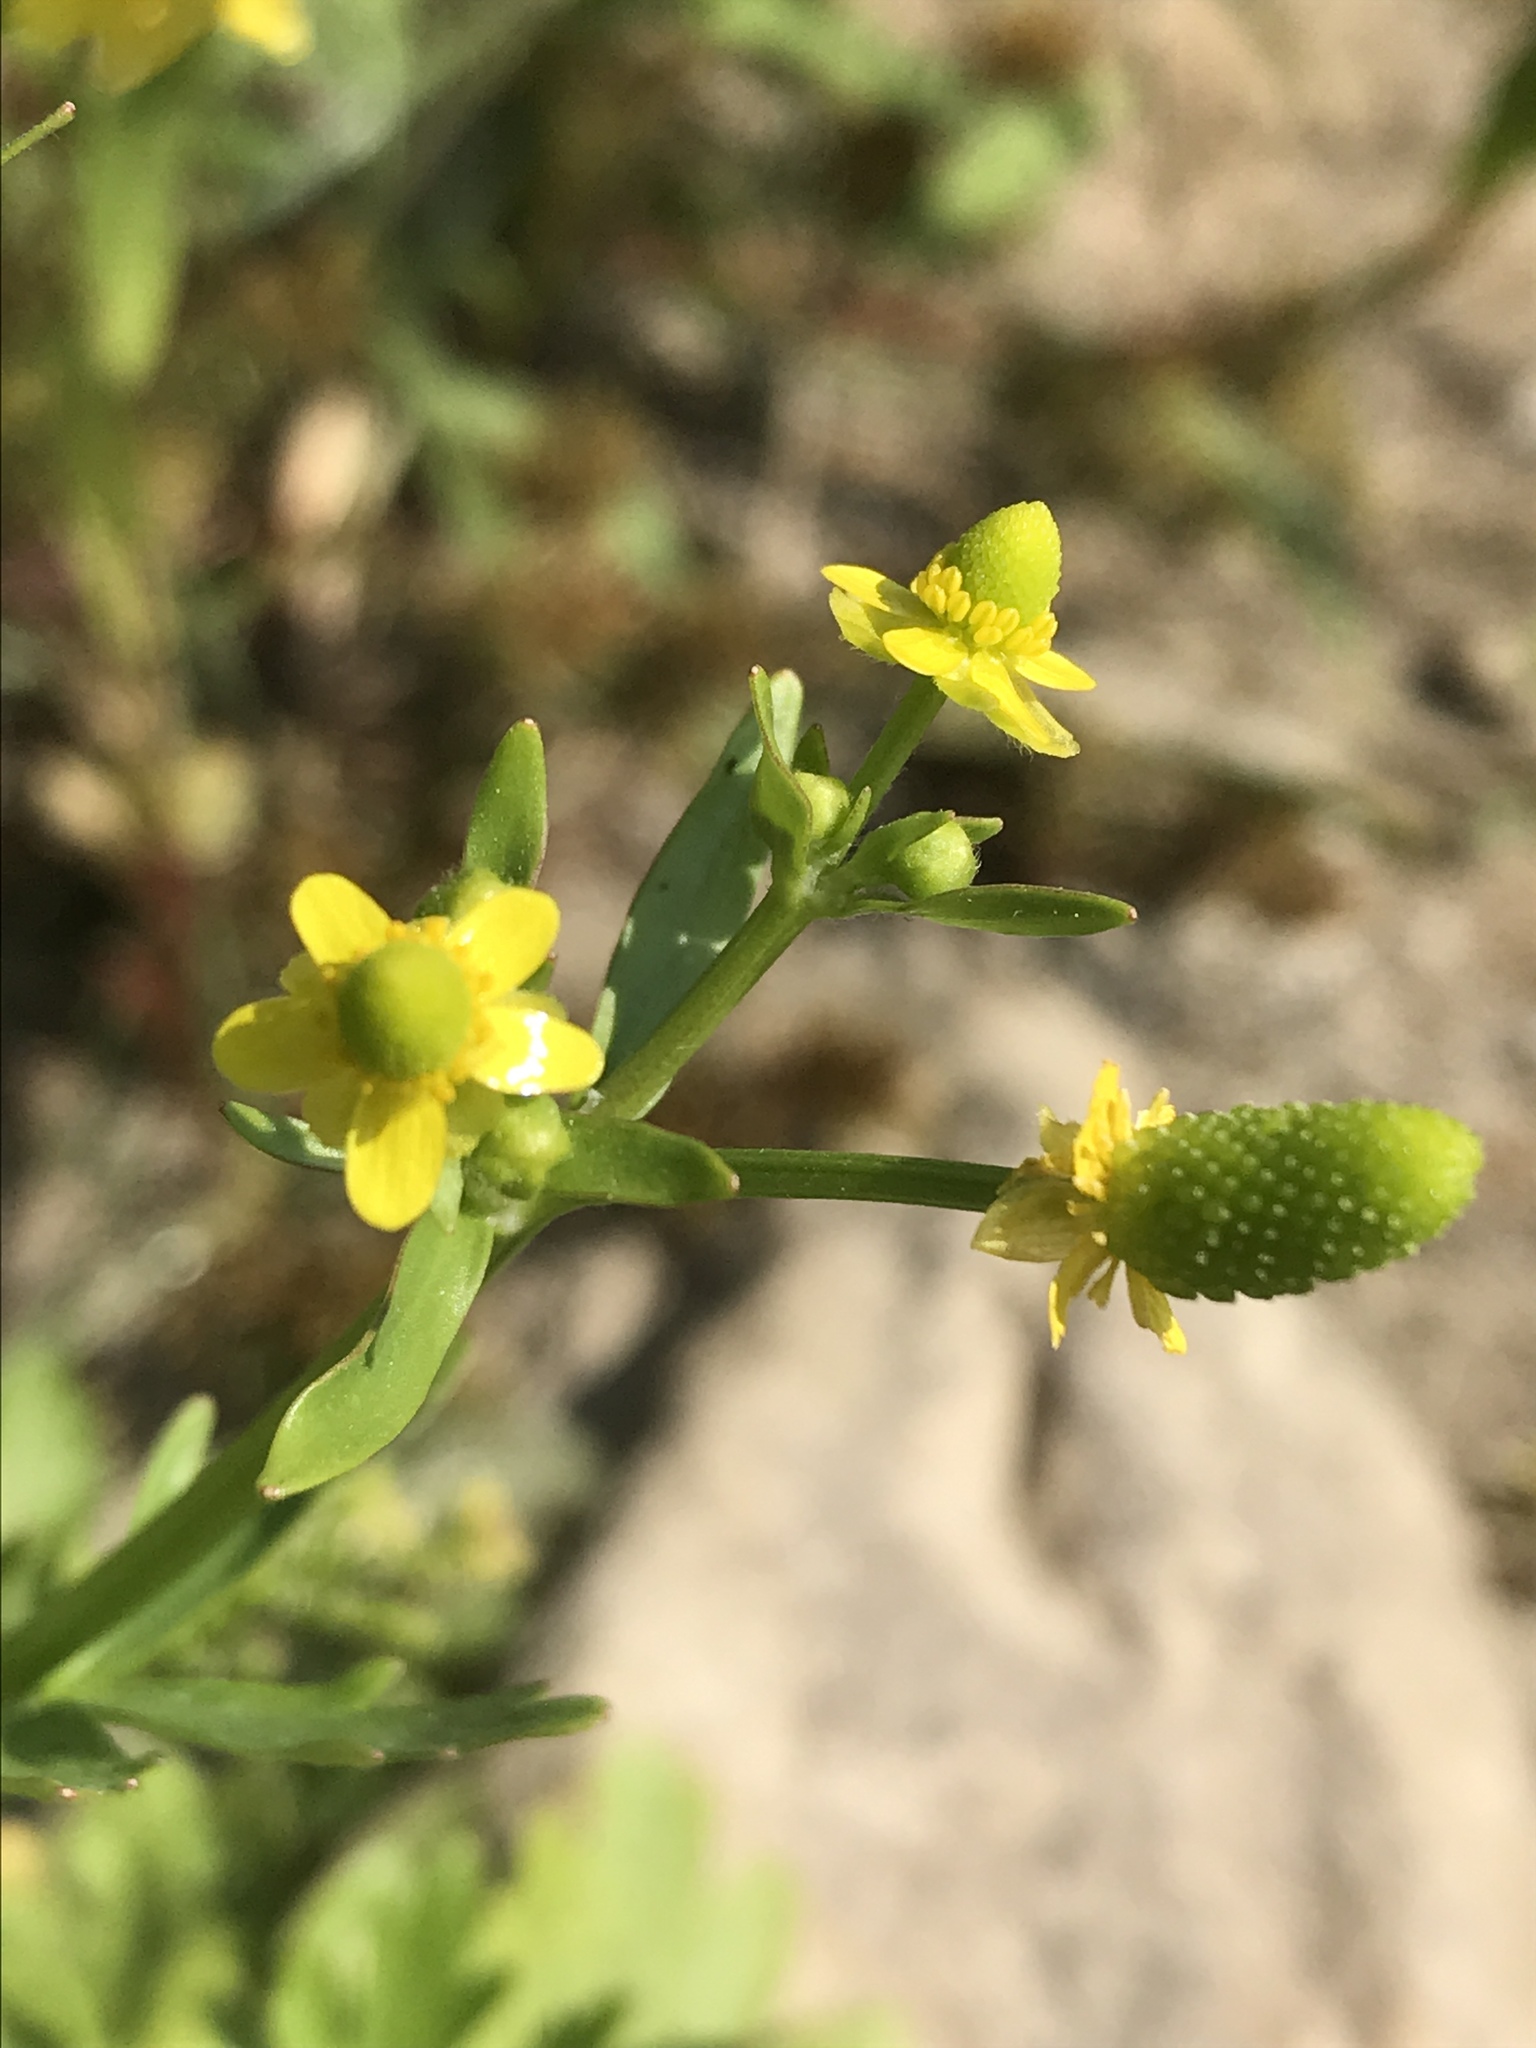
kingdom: Plantae
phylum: Tracheophyta
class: Magnoliopsida
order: Ranunculales
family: Ranunculaceae
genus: Ranunculus
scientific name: Ranunculus sceleratus
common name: Celery-leaved buttercup
